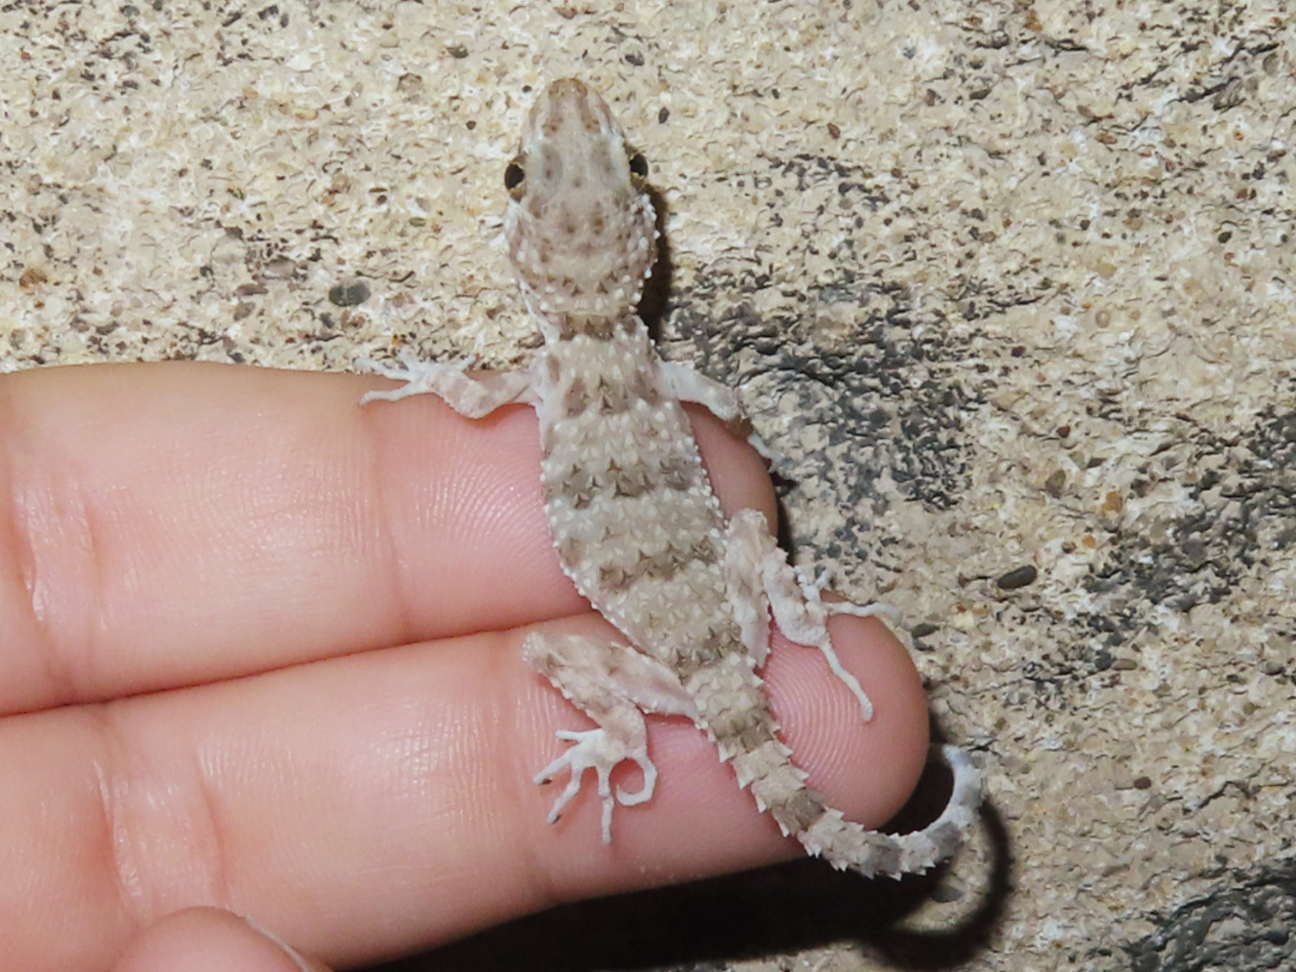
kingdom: Animalia
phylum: Chordata
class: Squamata
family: Gekkonidae
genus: Tenuidactylus
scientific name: Tenuidactylus caspius
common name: Caspian bent-toed gecko
